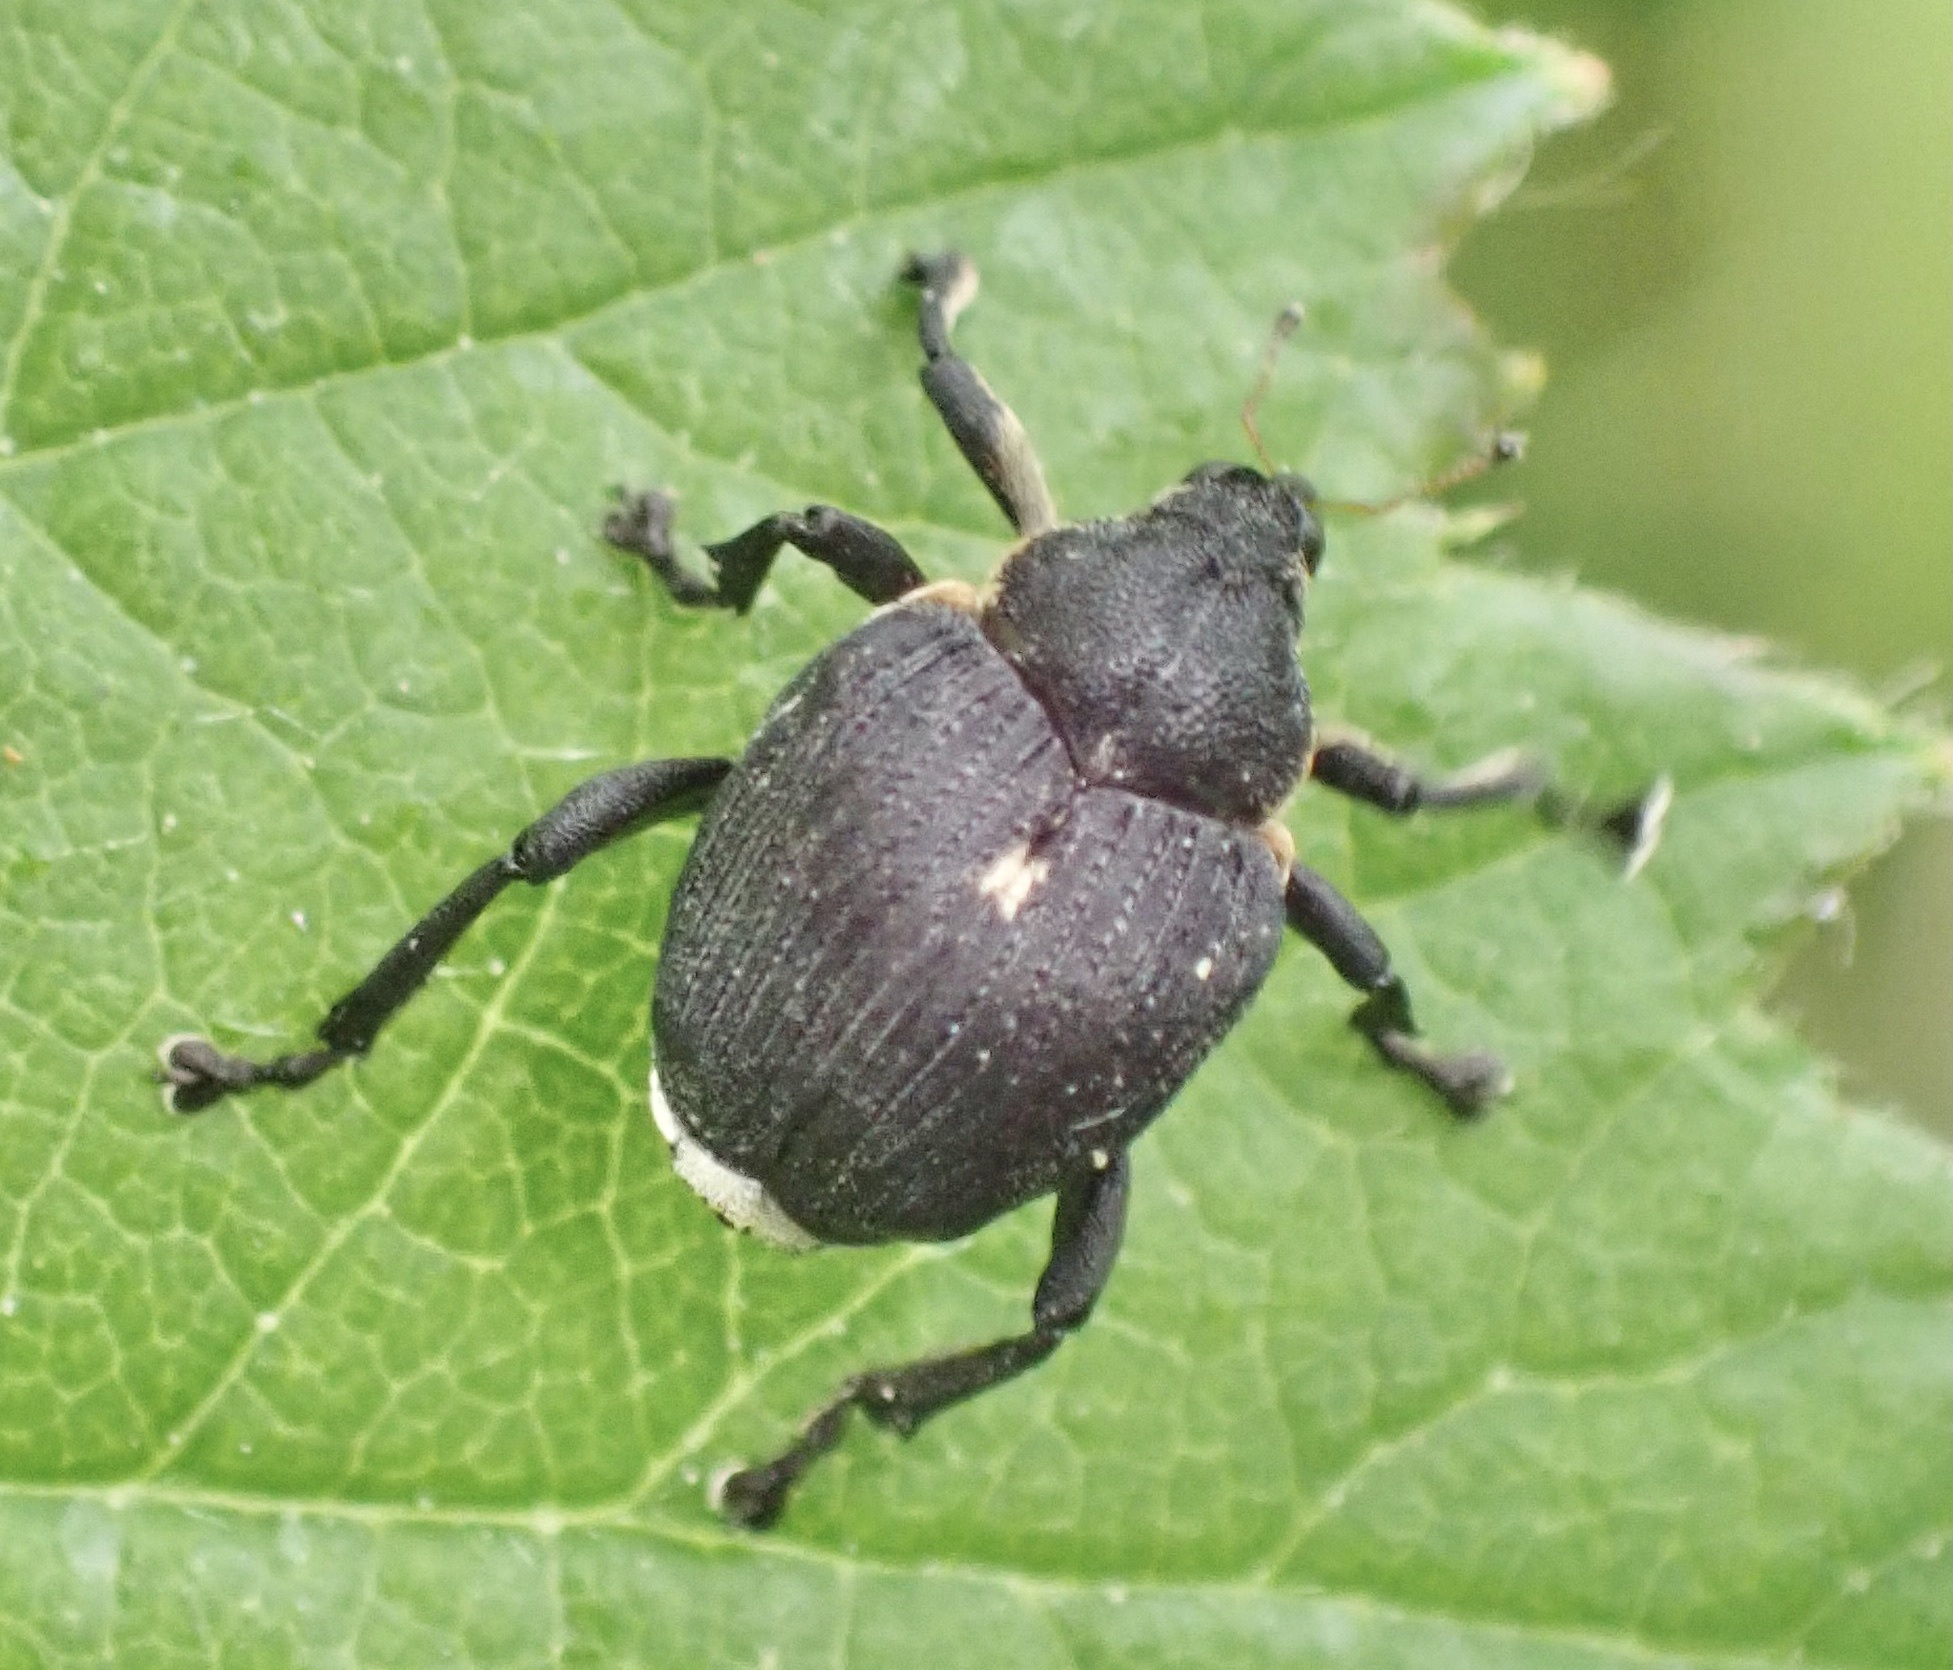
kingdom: Animalia
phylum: Arthropoda
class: Insecta
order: Coleoptera
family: Curculionidae
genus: Mononychus
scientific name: Mononychus punctumalbum
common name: Iris weevil
